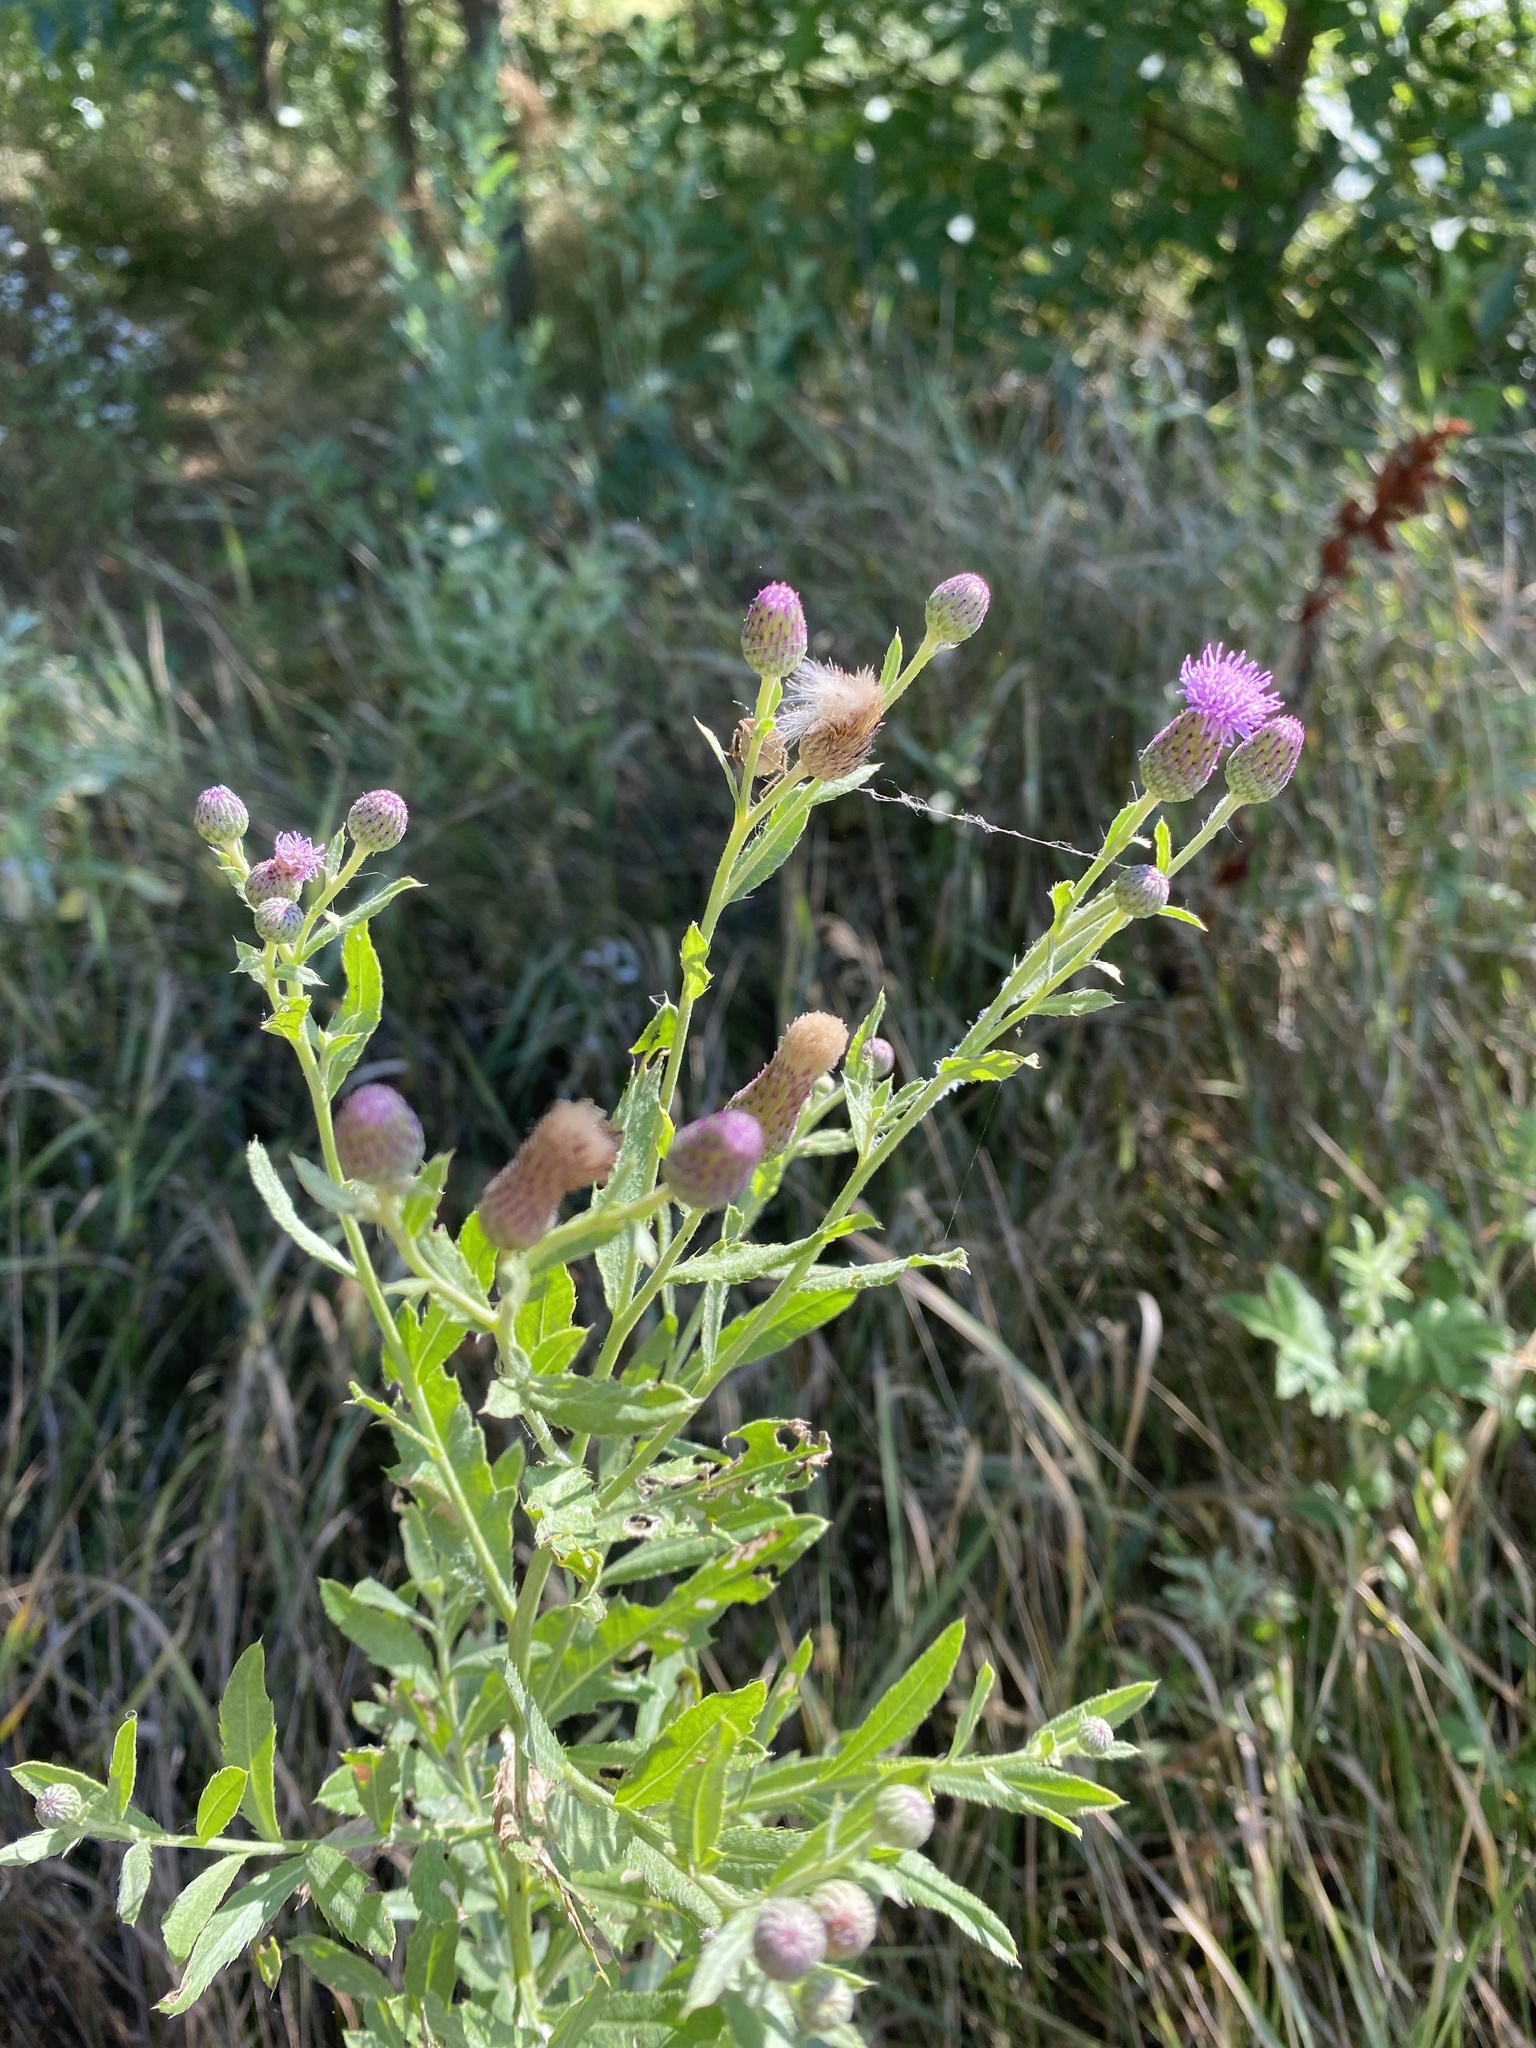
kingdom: Plantae
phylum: Tracheophyta
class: Magnoliopsida
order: Asterales
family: Asteraceae
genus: Cirsium
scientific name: Cirsium arvense
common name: Creeping thistle
